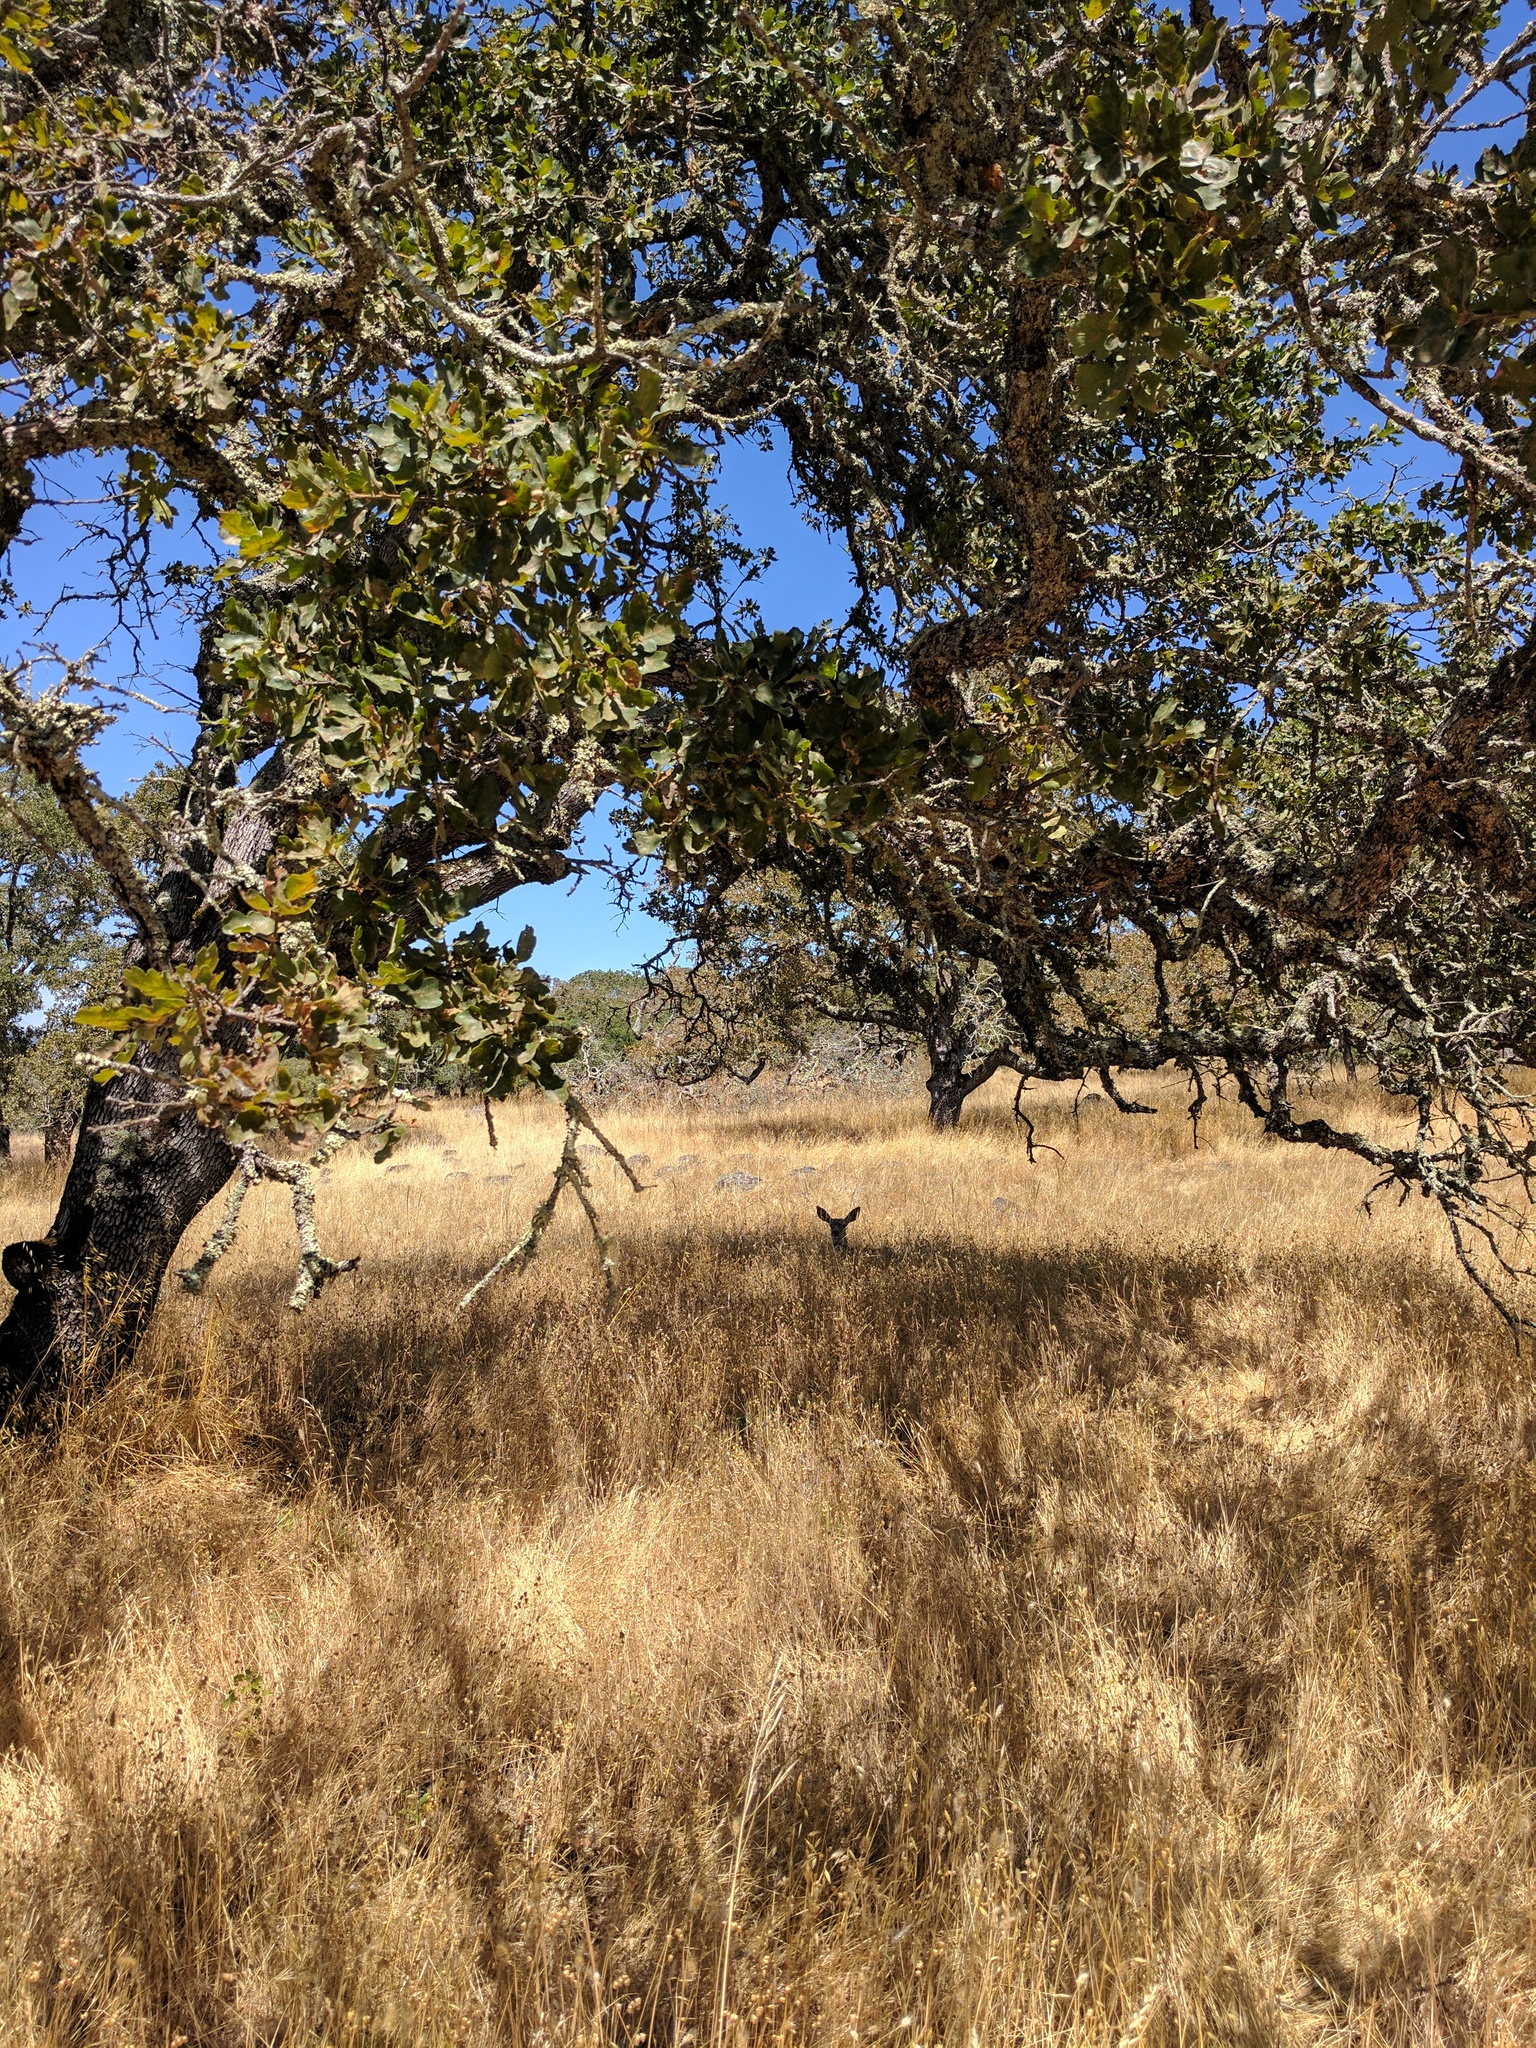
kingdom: Animalia
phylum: Chordata
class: Mammalia
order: Artiodactyla
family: Cervidae
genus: Odocoileus
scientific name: Odocoileus hemionus
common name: Mule deer
